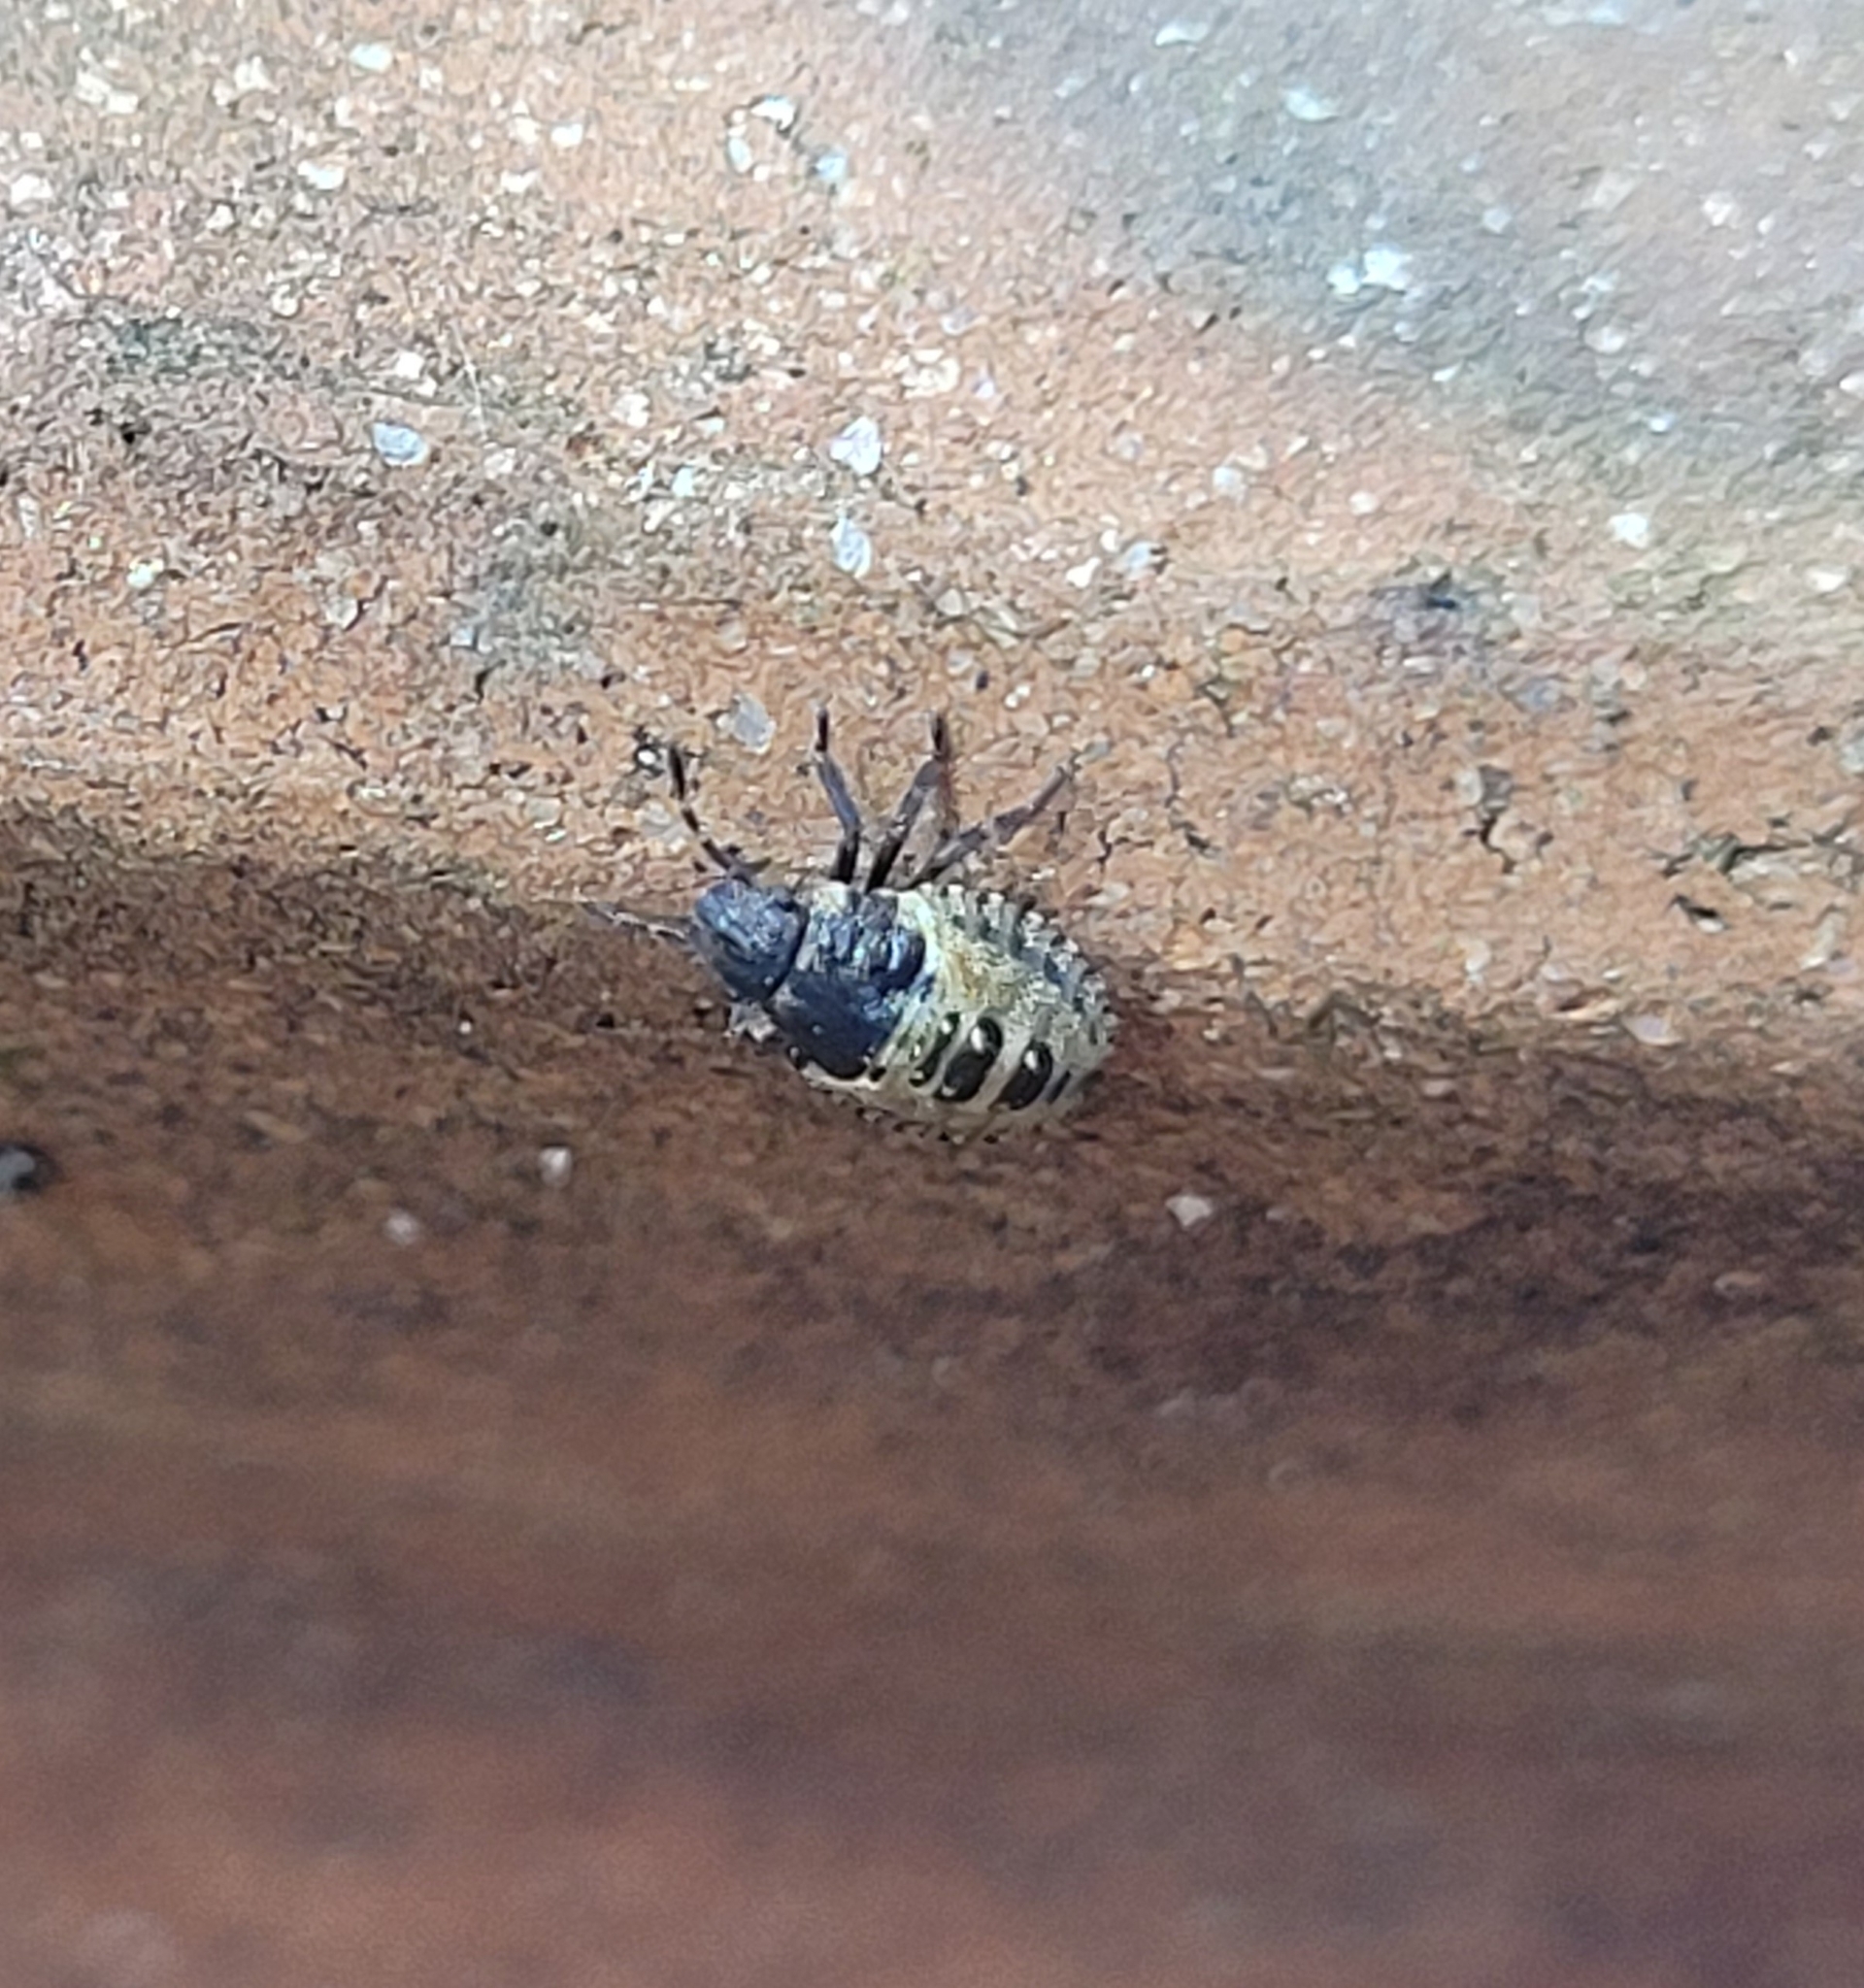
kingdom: Animalia
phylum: Arthropoda
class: Insecta
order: Hemiptera
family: Pentatomidae
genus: Pentatoma
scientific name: Pentatoma rufipes
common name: Forest bug
